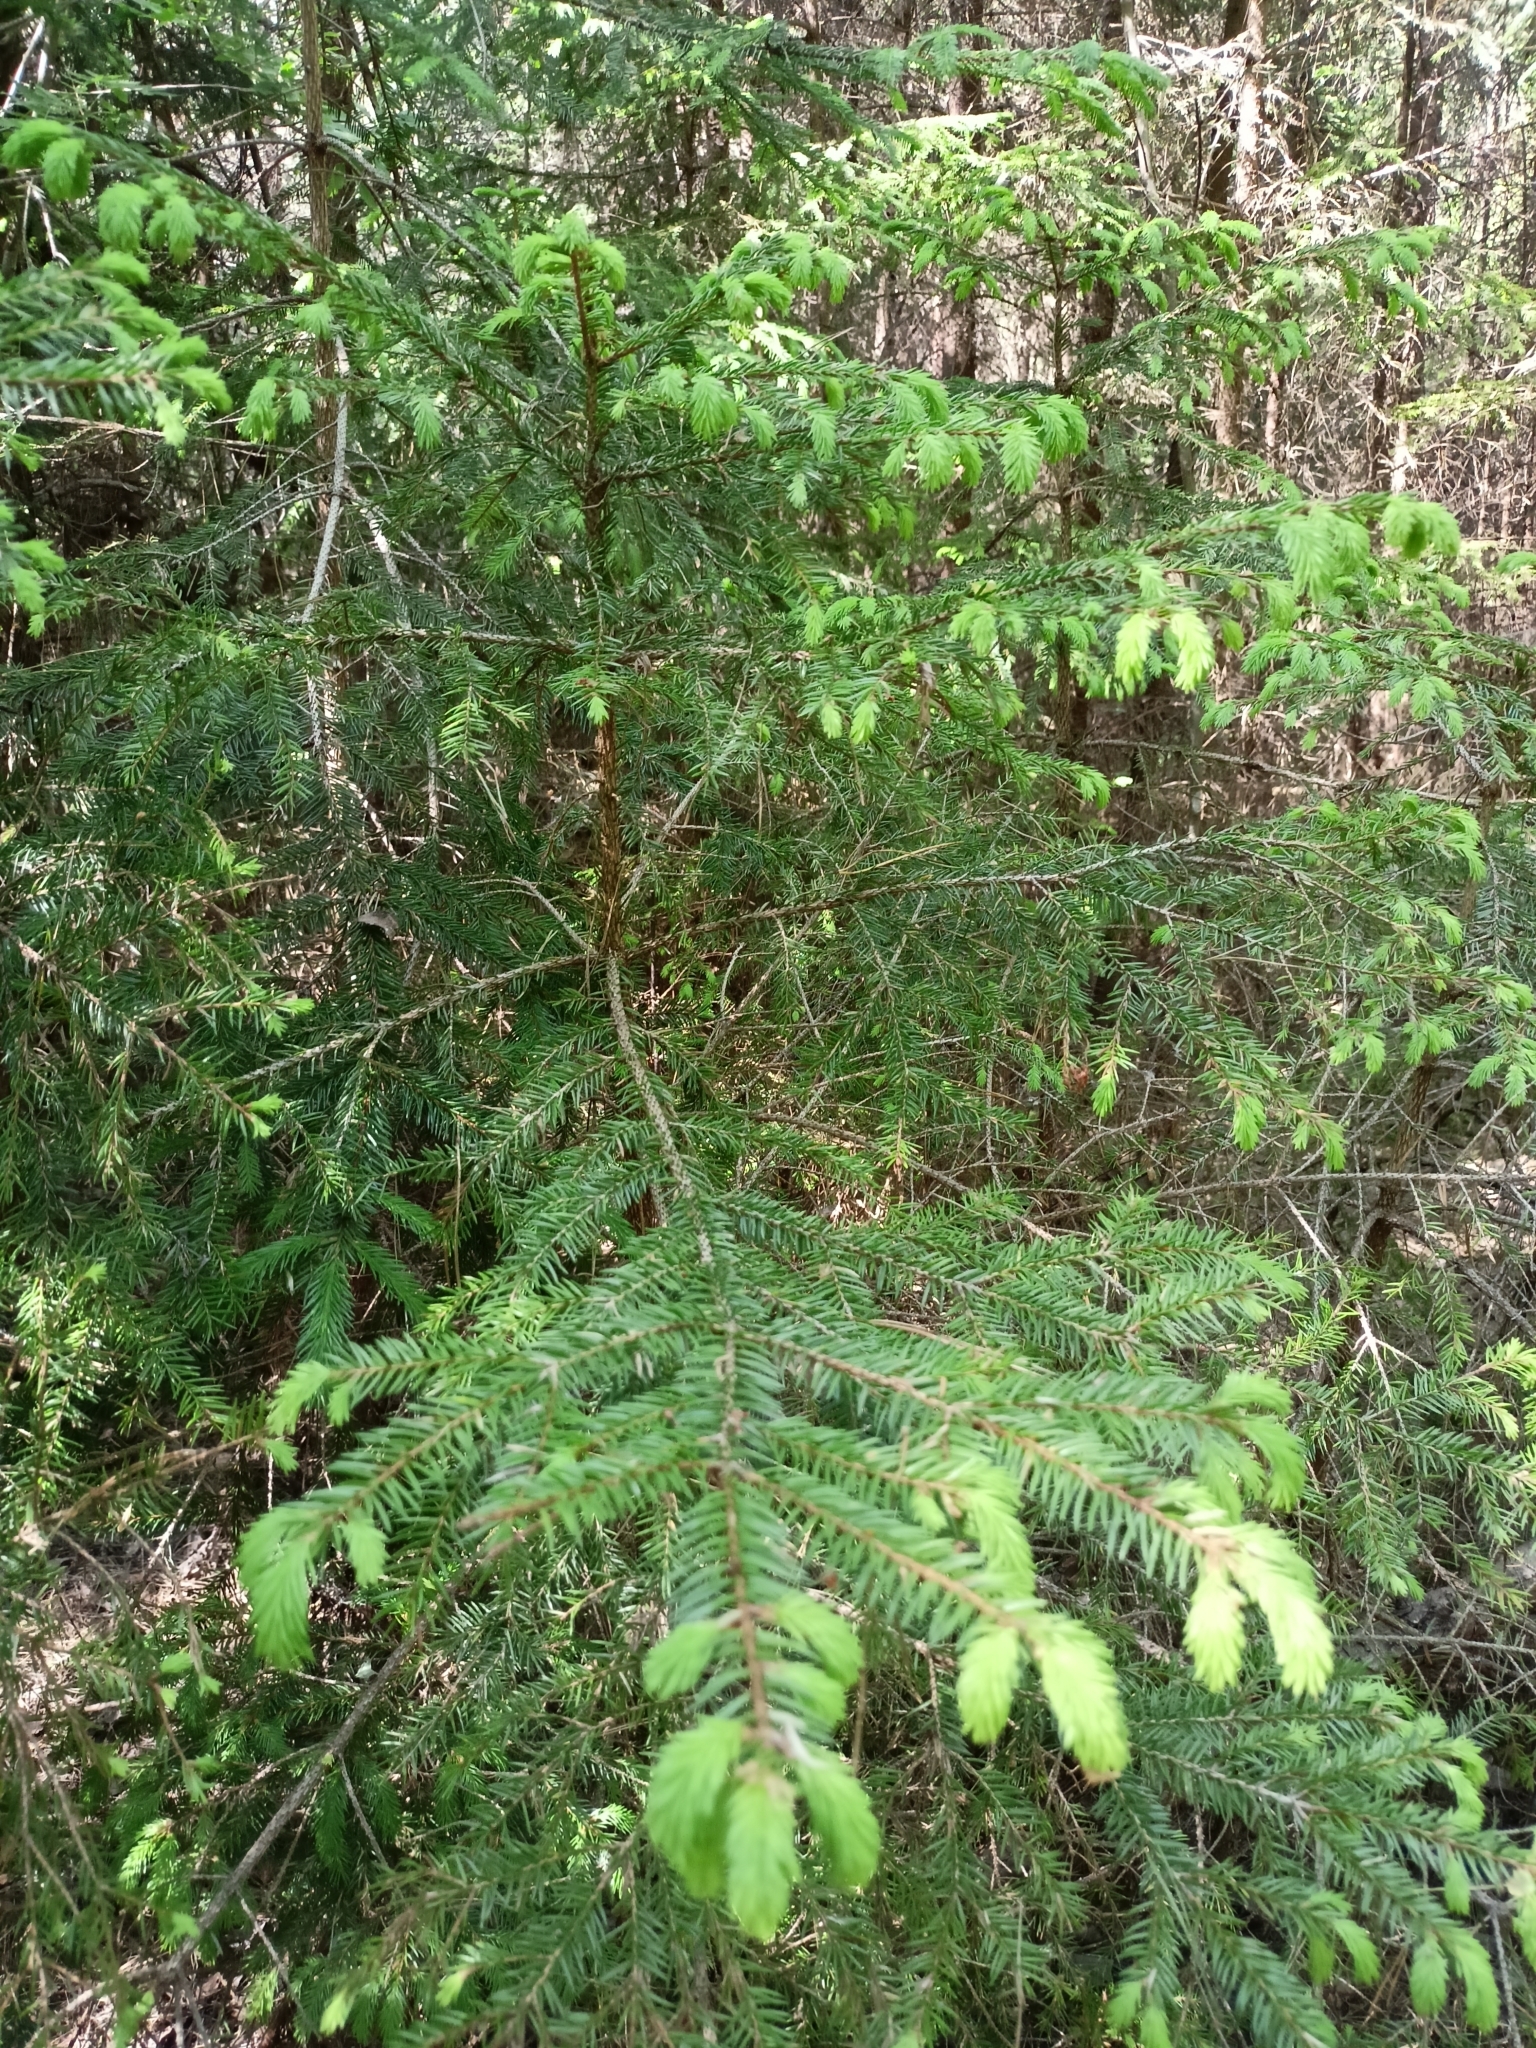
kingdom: Plantae
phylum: Tracheophyta
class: Pinopsida
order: Pinales
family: Pinaceae
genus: Picea
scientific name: Picea abies
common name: Norway spruce
